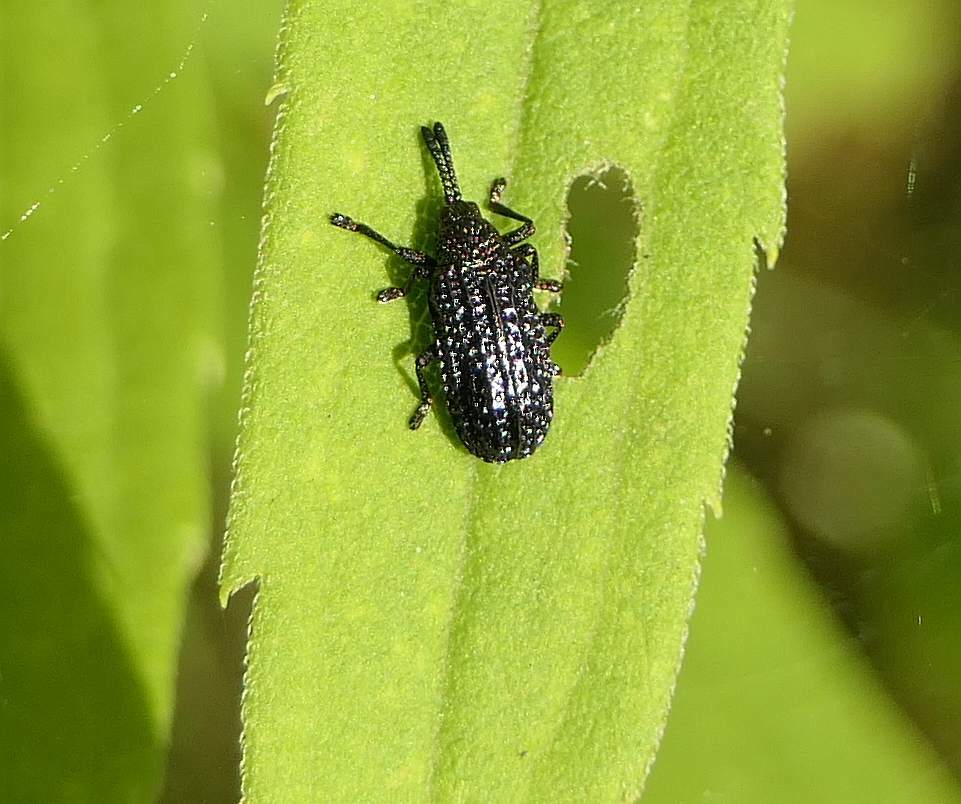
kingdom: Animalia
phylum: Arthropoda
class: Insecta
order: Coleoptera
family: Chrysomelidae
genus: Microrhopala
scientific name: Microrhopala excavata
